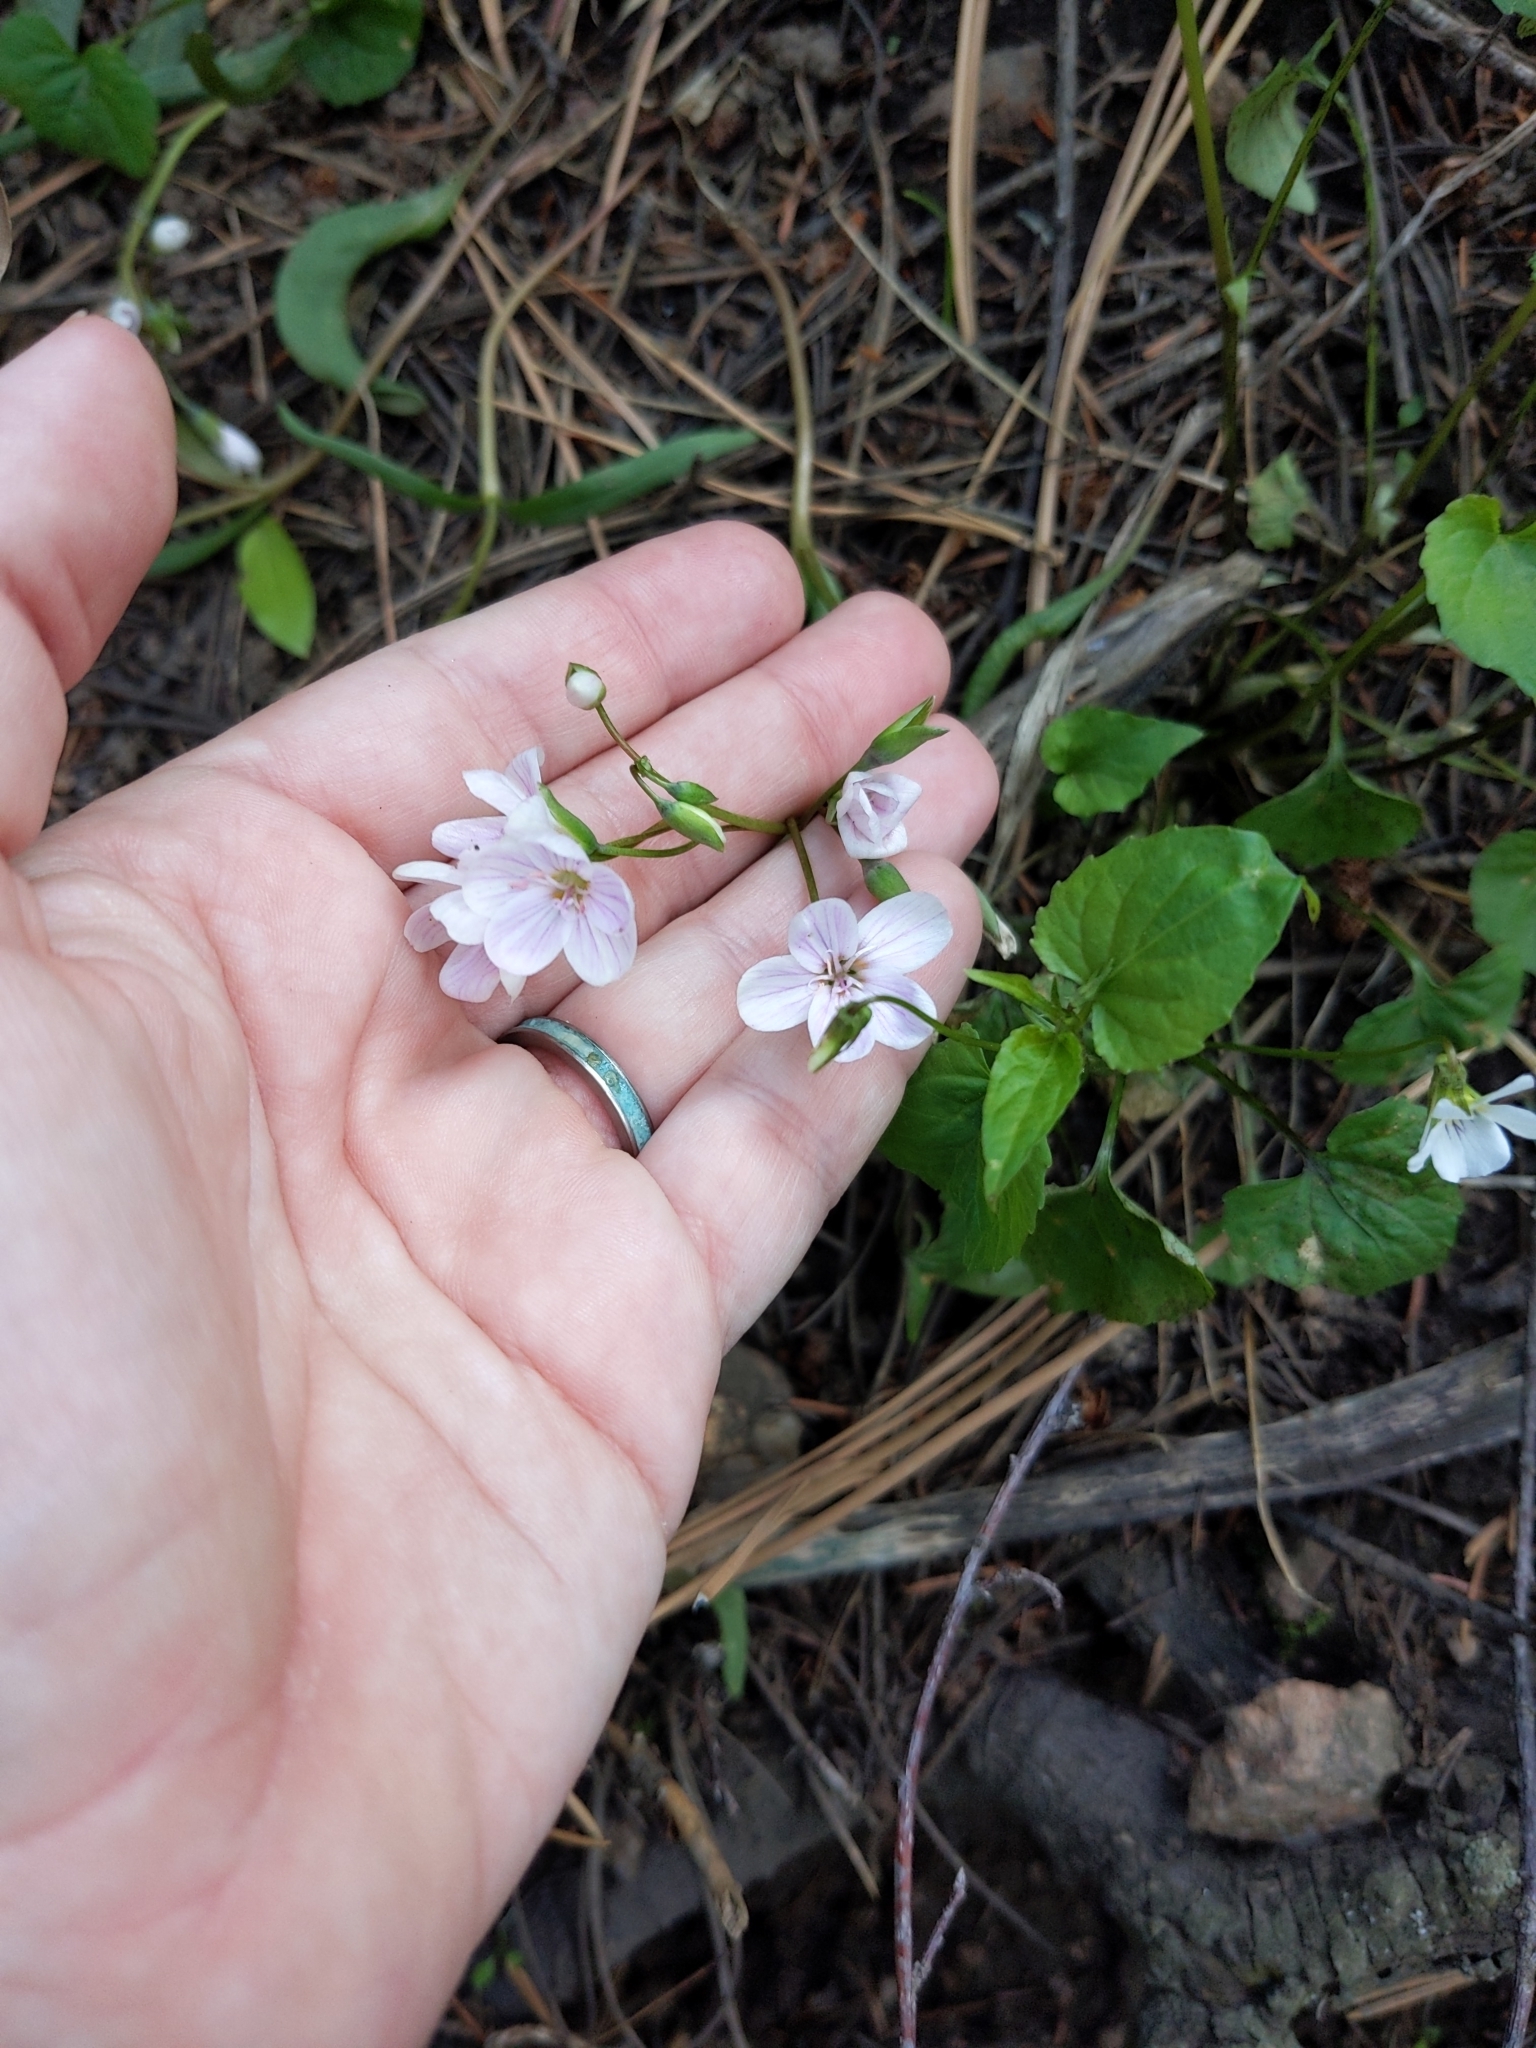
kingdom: Plantae
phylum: Tracheophyta
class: Magnoliopsida
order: Caryophyllales
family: Montiaceae
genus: Claytonia
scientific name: Claytonia rosea
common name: Rocky mountain spring-beauty
